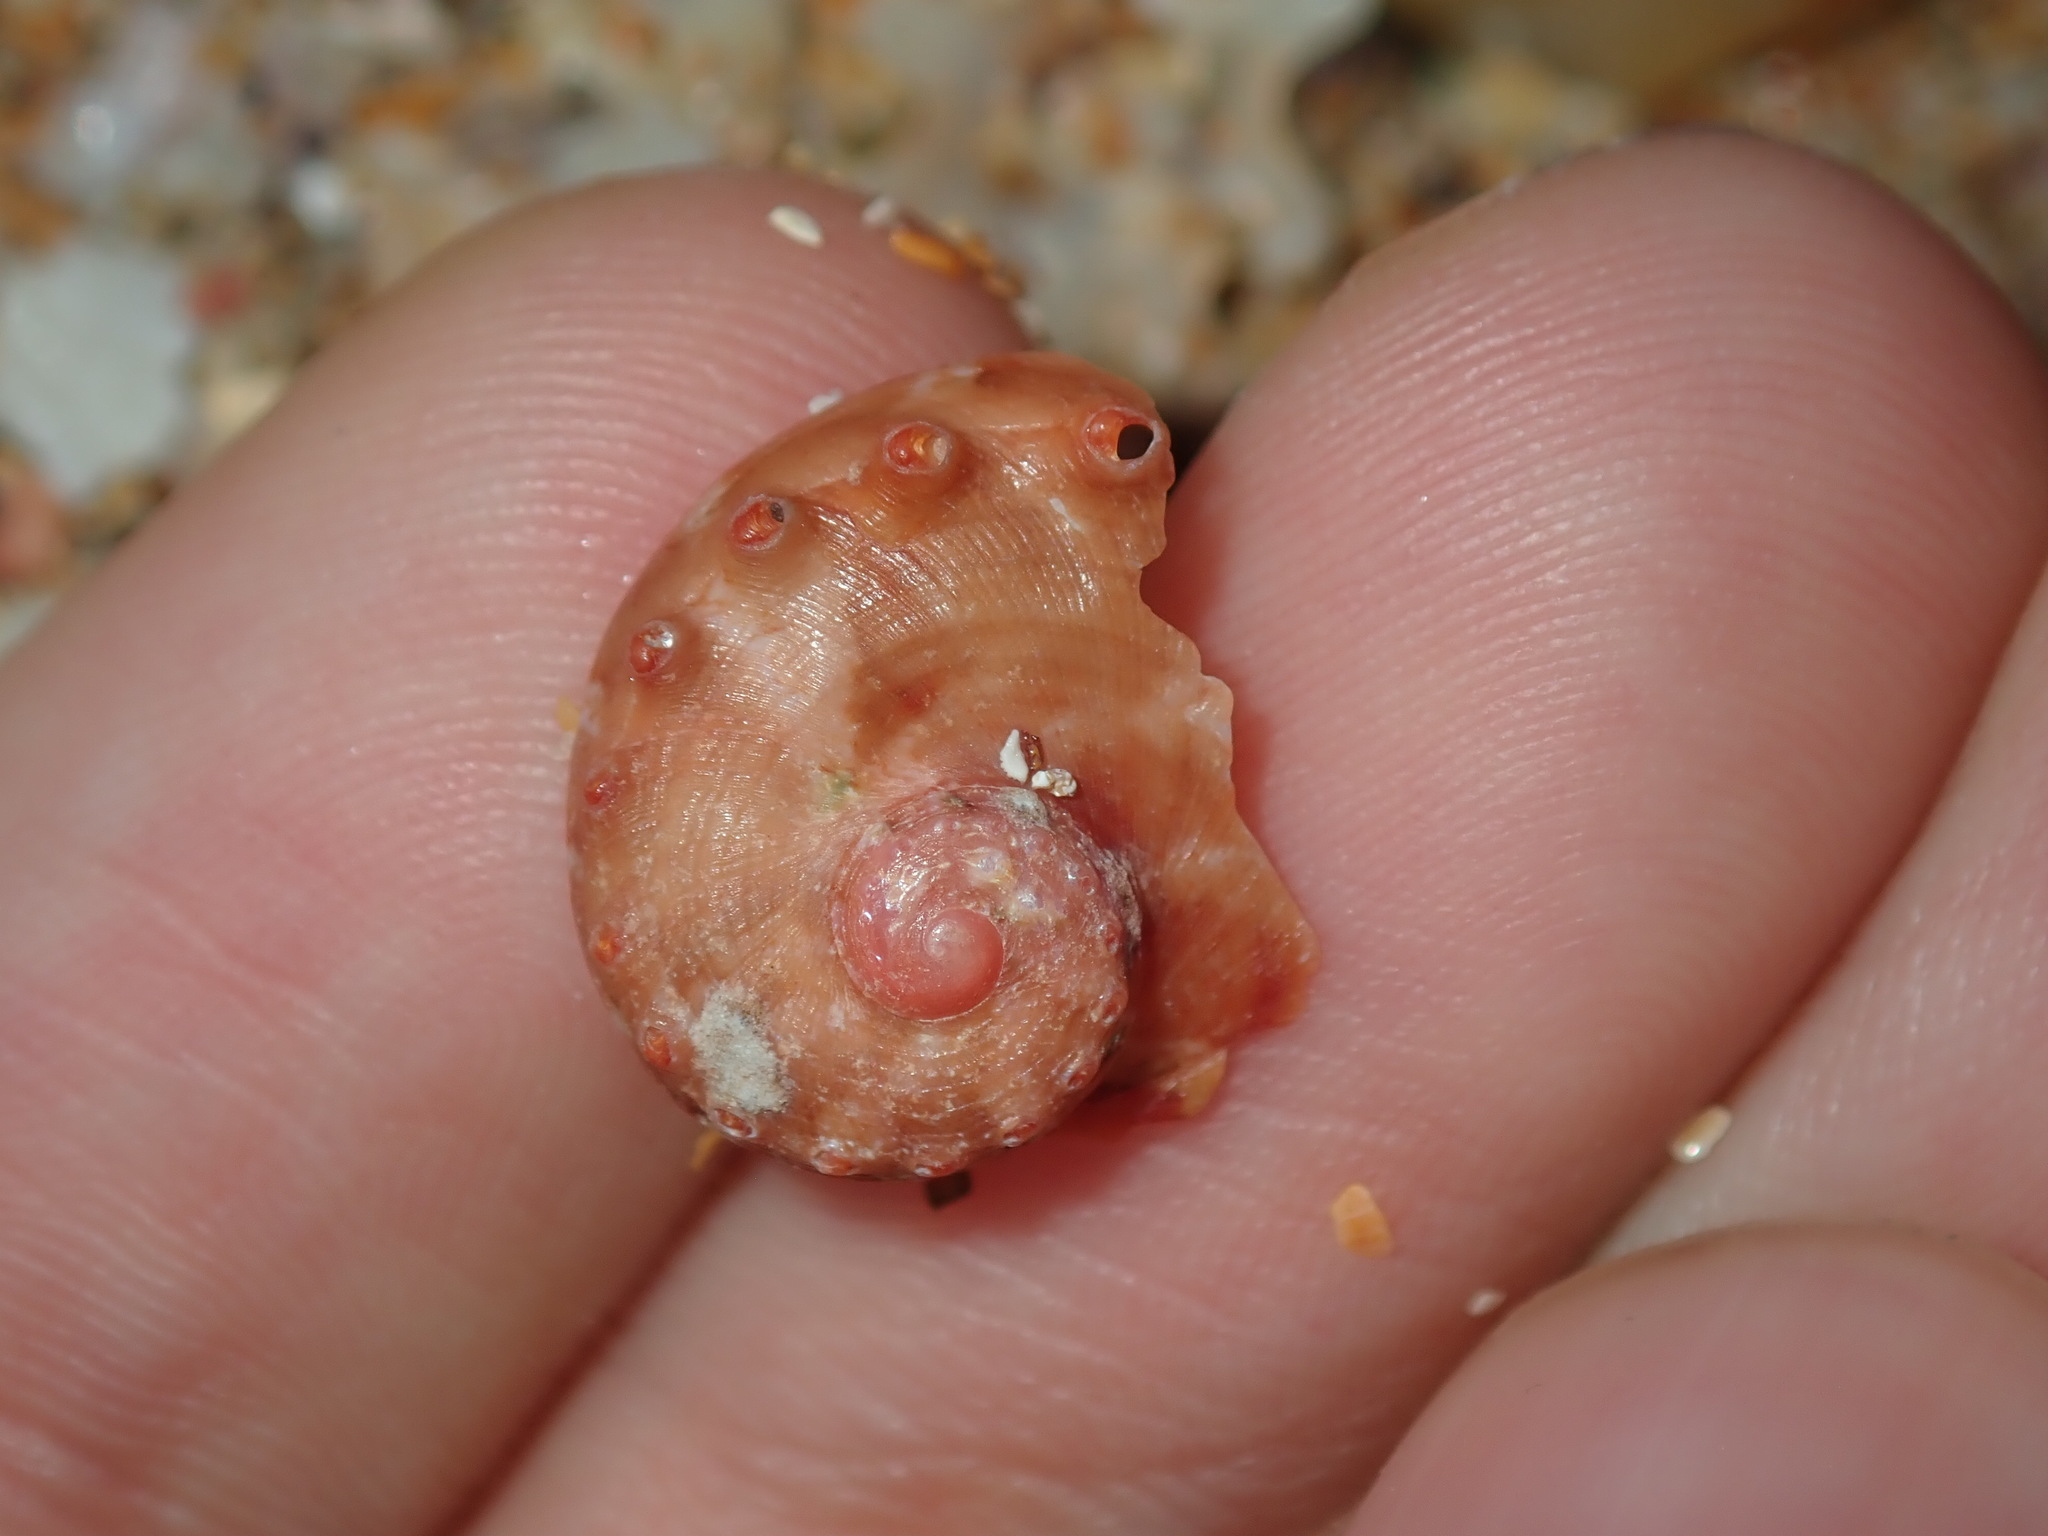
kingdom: Animalia
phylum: Mollusca
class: Gastropoda
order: Lepetellida
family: Haliotidae
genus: Haliotis
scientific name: Haliotis brazieri
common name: Brazier's ear shell
